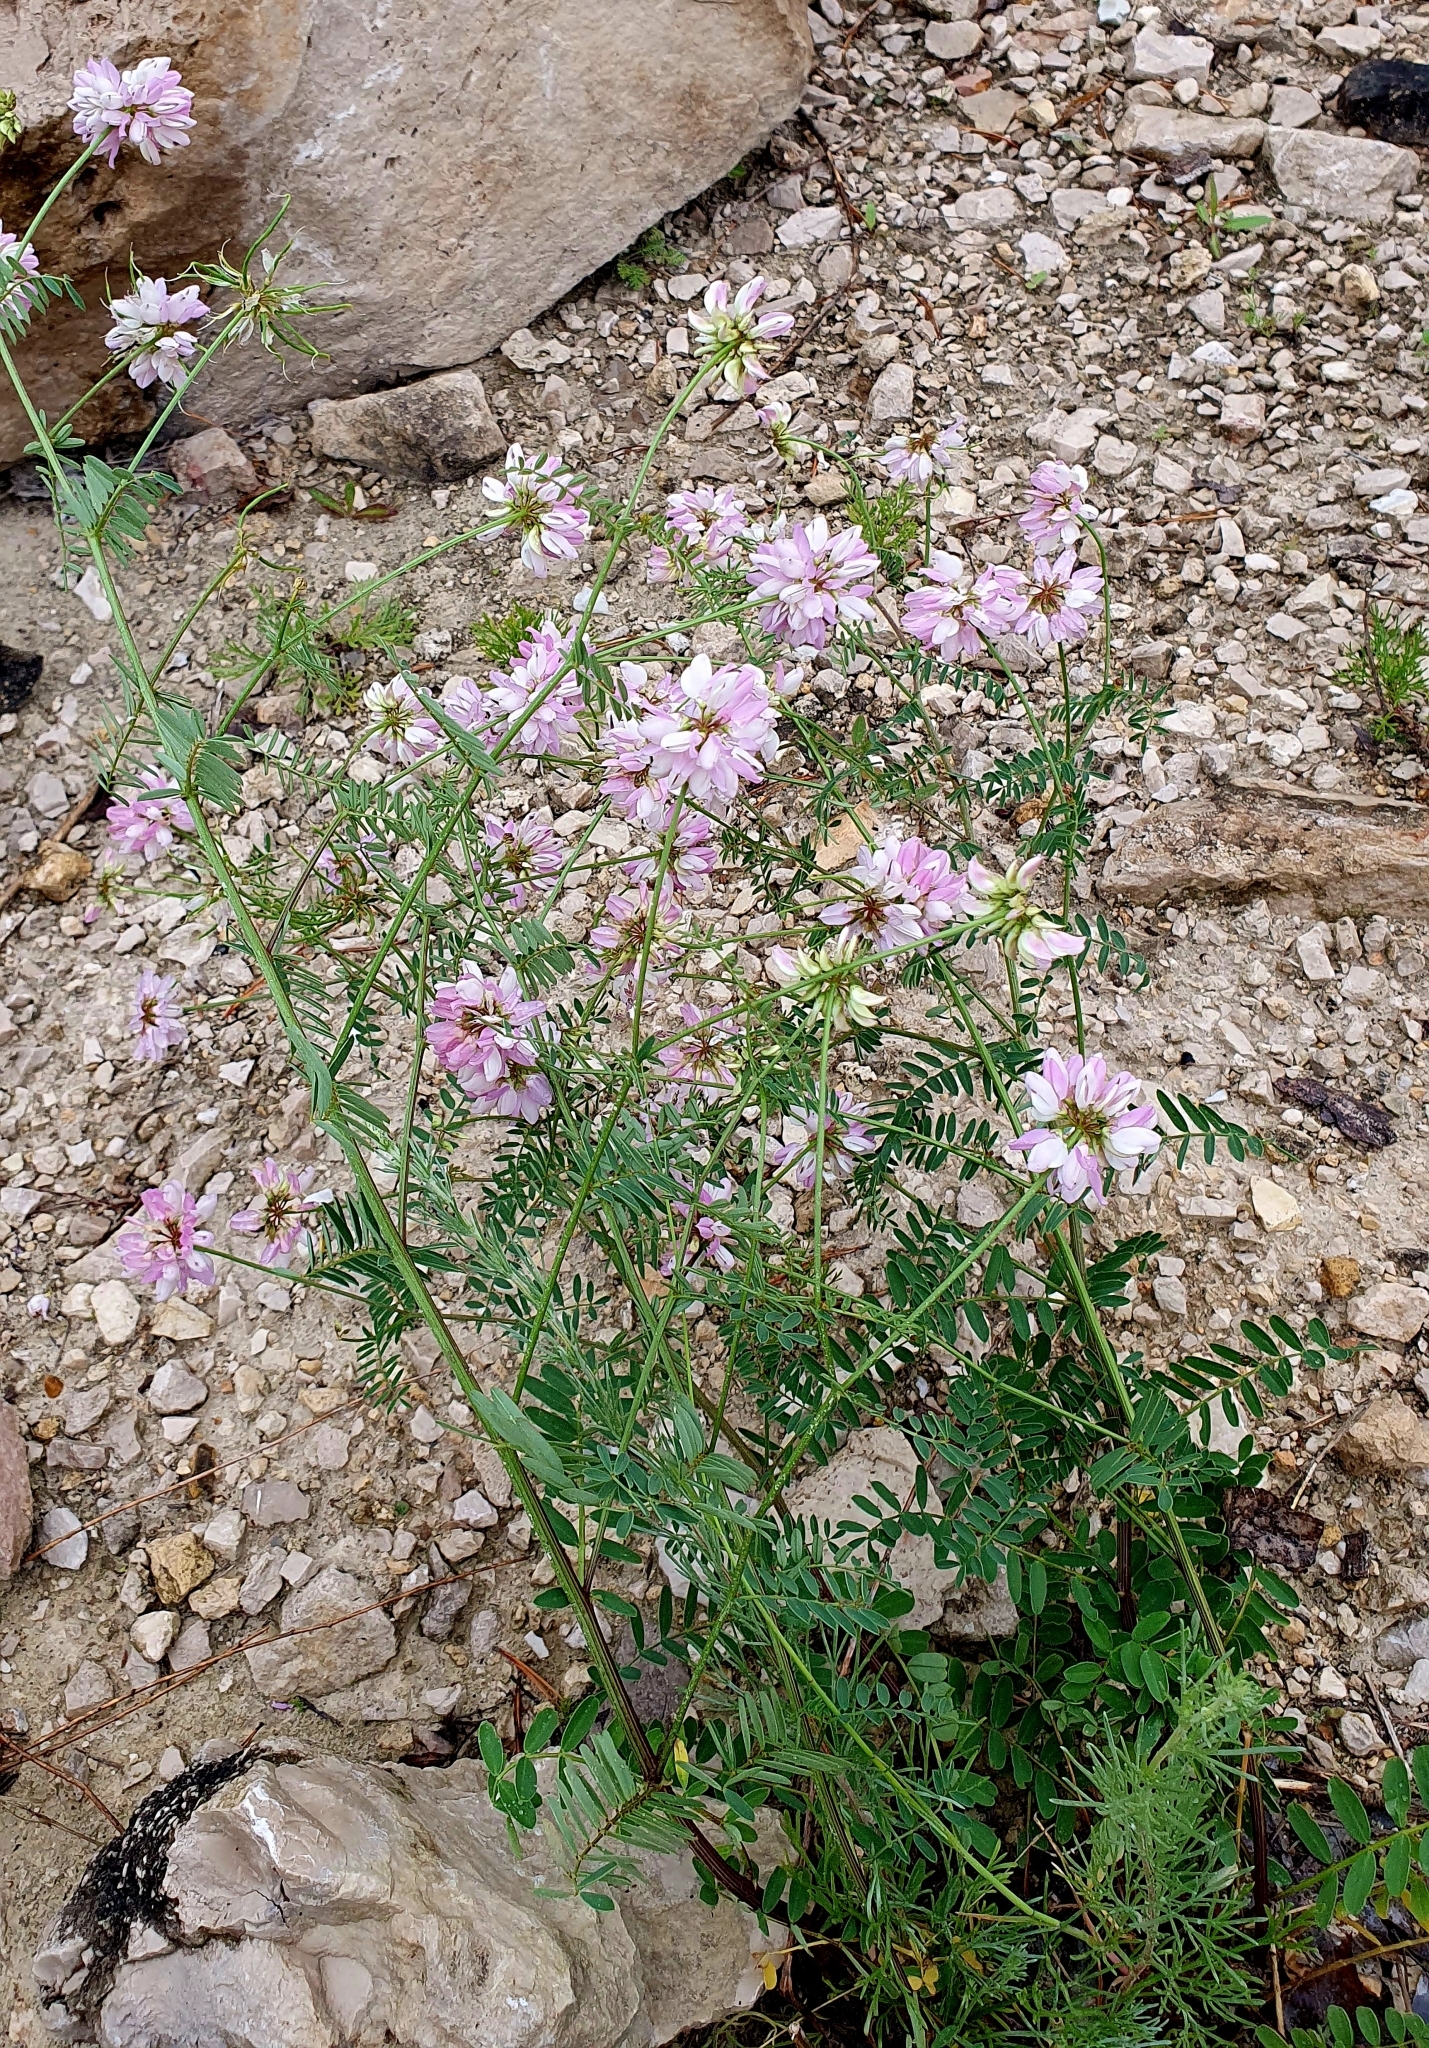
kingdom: Plantae
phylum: Tracheophyta
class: Magnoliopsida
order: Fabales
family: Fabaceae
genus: Coronilla
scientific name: Coronilla varia
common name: Crownvetch
